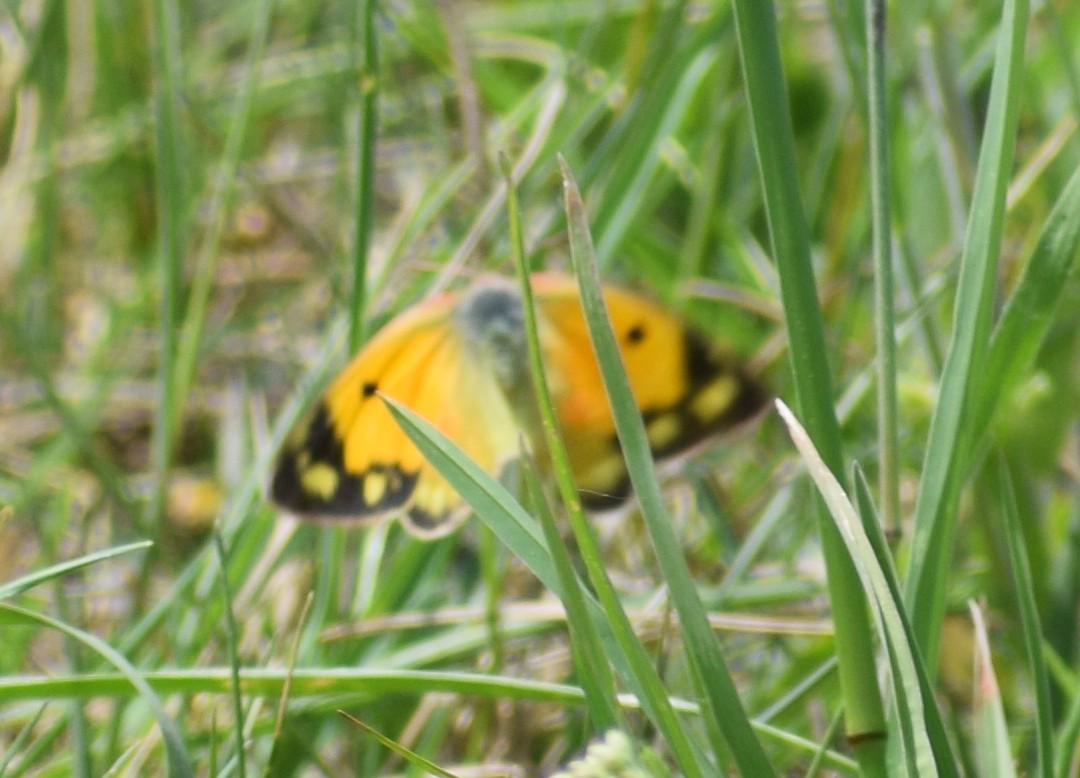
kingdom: Animalia
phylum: Arthropoda
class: Insecta
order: Lepidoptera
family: Pieridae
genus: Colias
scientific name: Colias croceus
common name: Clouded yellow
